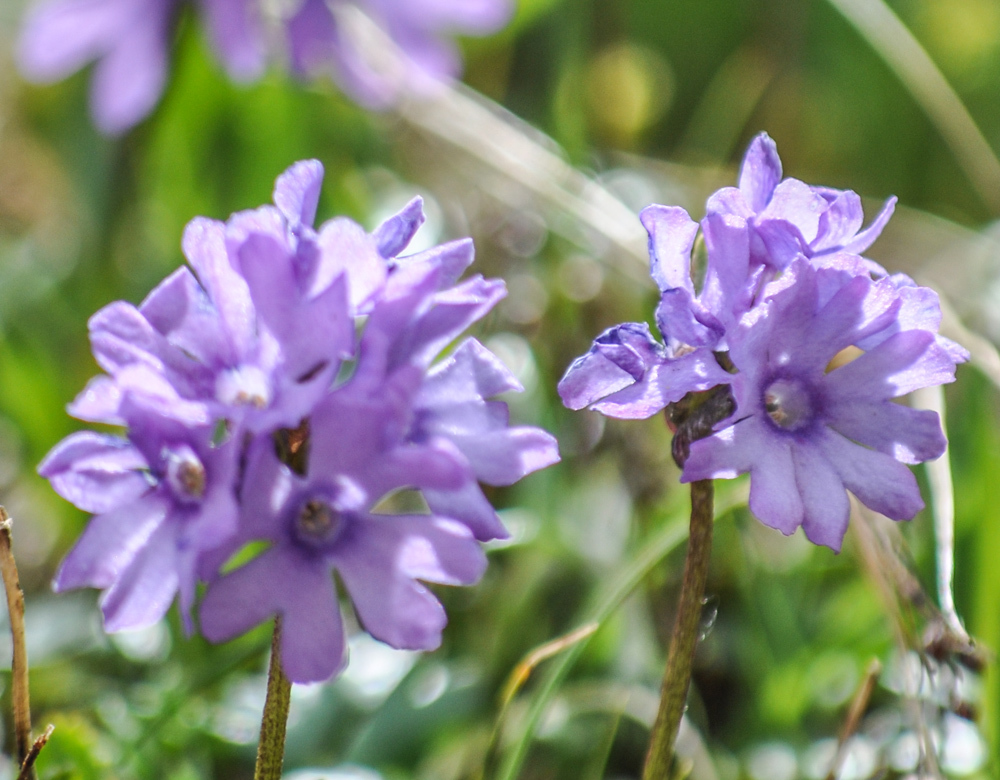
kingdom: Plantae
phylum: Tracheophyta
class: Magnoliopsida
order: Ericales
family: Primulaceae
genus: Primula
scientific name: Primula glutinosa
